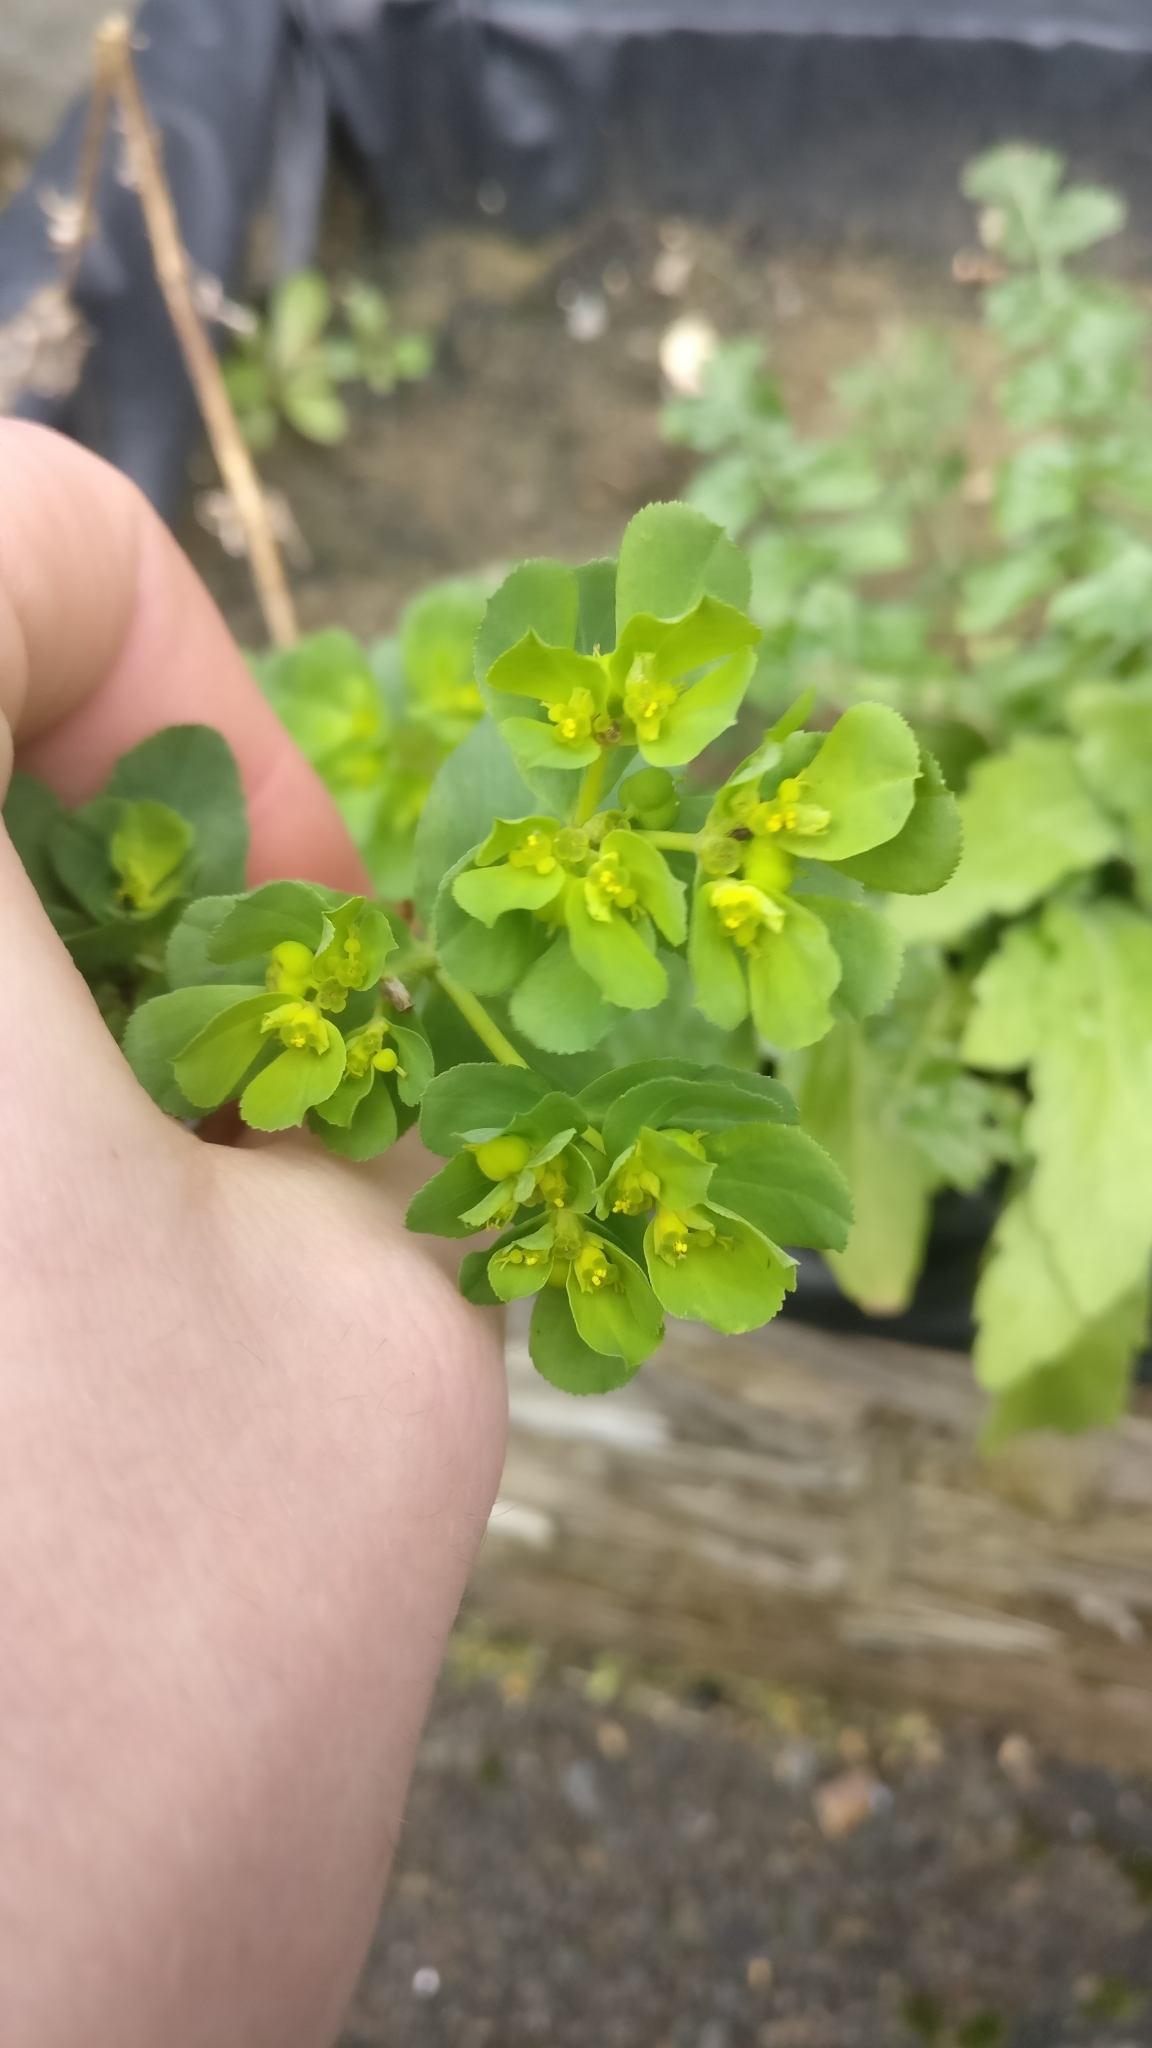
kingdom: Plantae
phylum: Tracheophyta
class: Magnoliopsida
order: Malpighiales
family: Euphorbiaceae
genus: Euphorbia
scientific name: Euphorbia helioscopia
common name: Sun spurge
